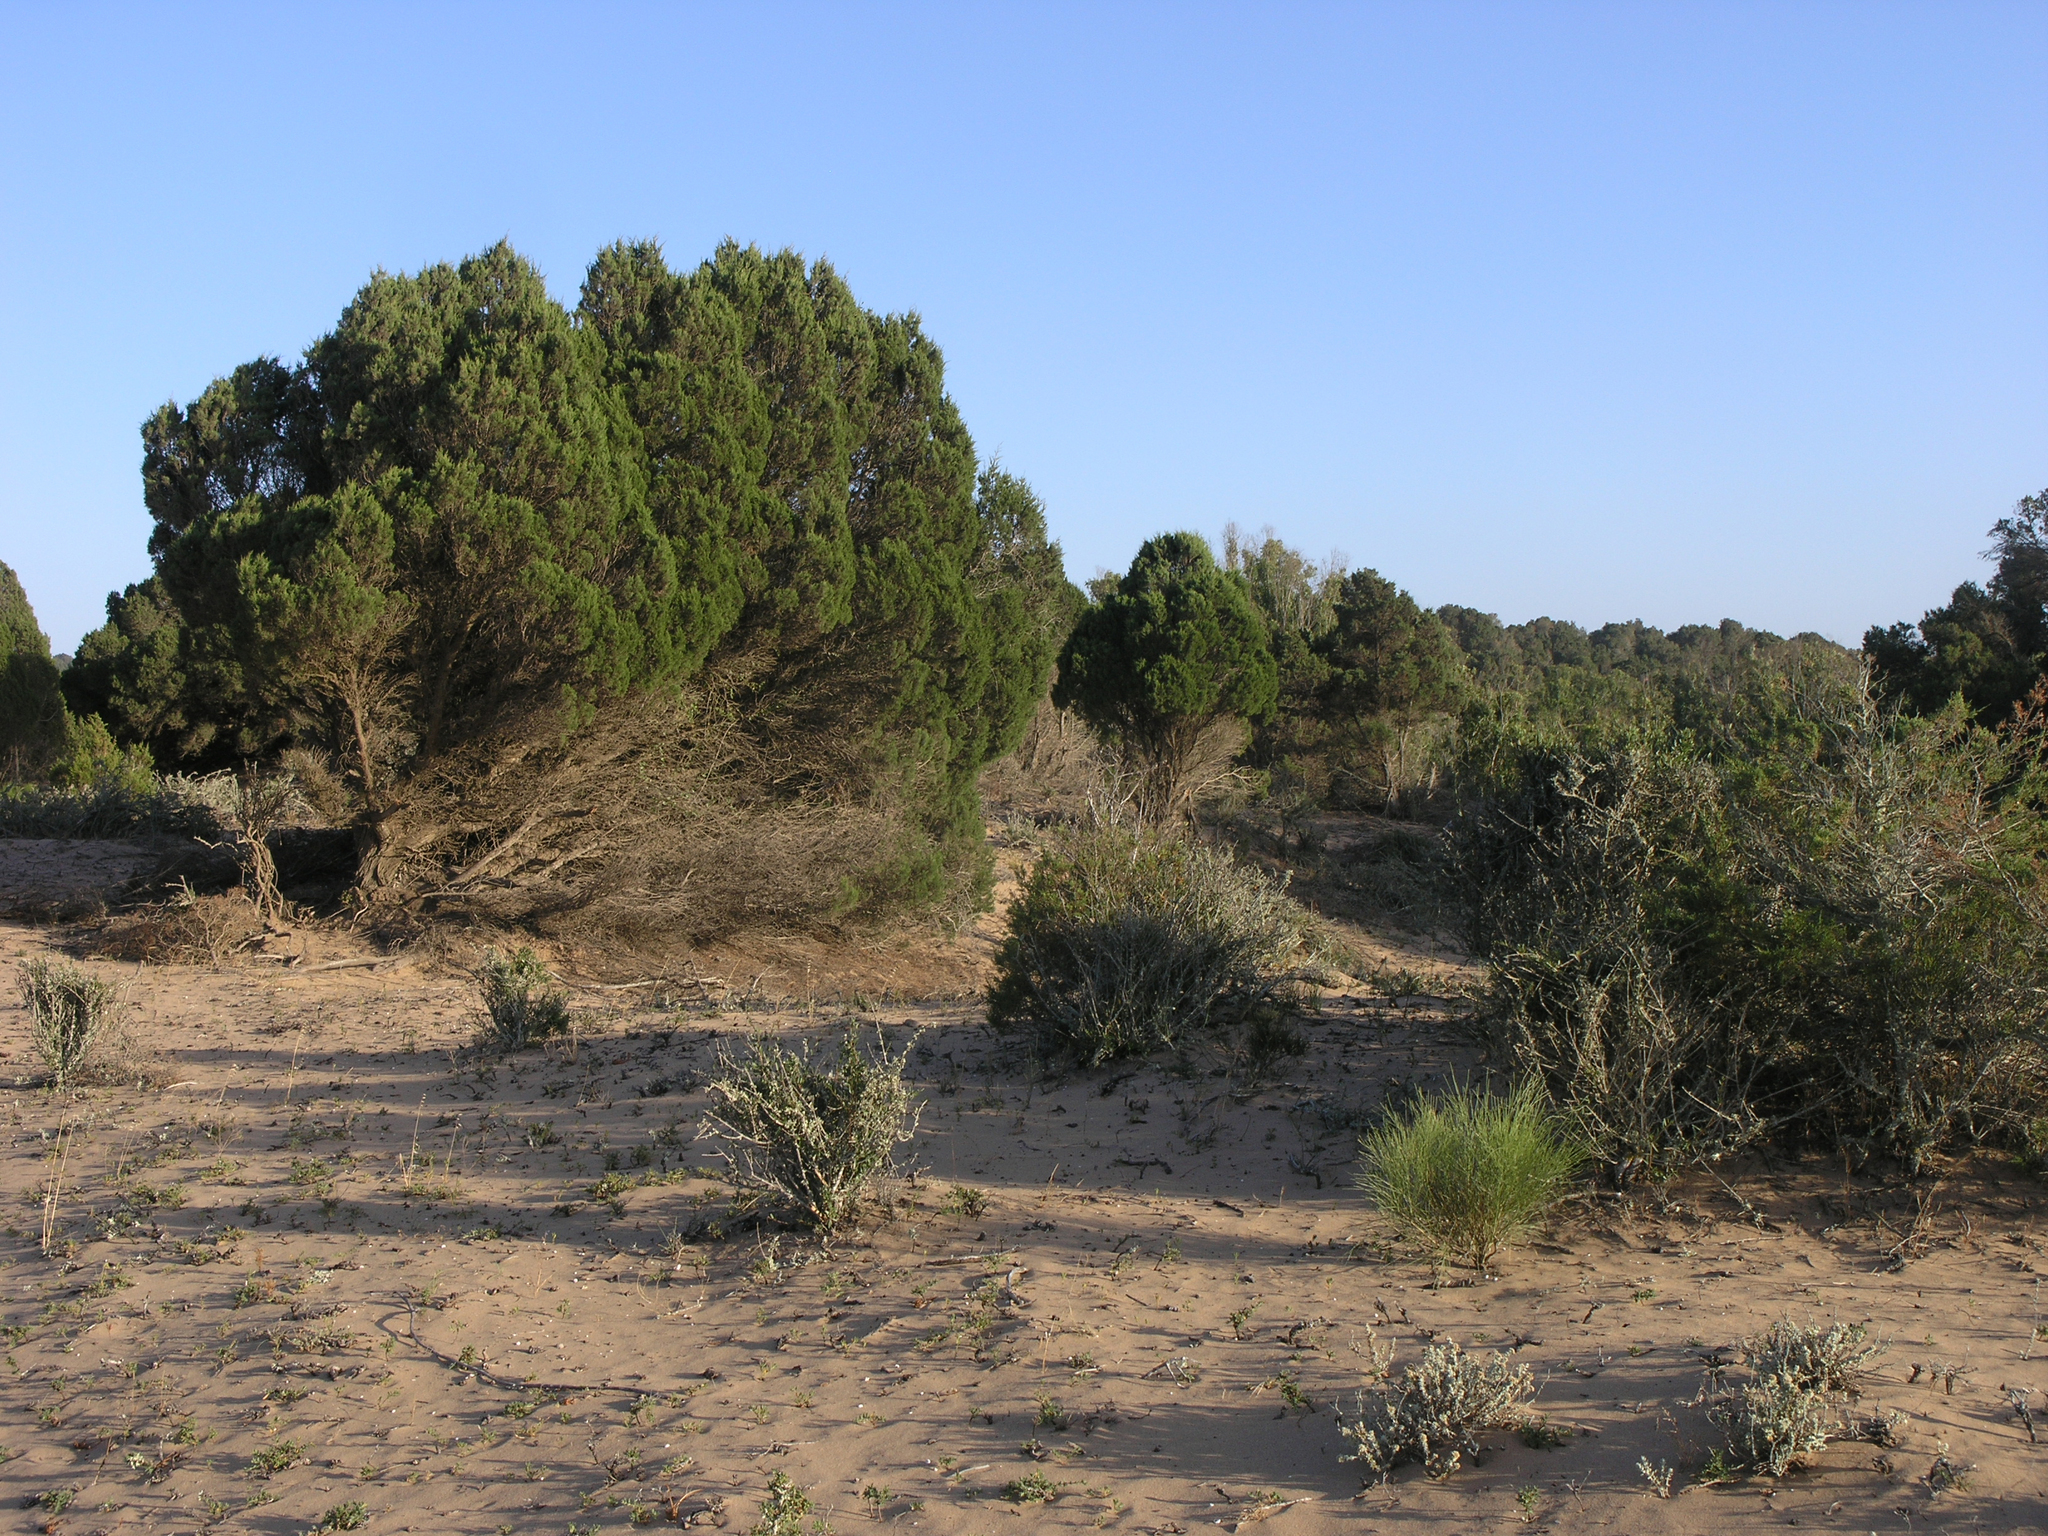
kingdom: Plantae
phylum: Tracheophyta
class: Pinopsida
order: Pinales
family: Cupressaceae
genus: Juniperus
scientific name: Juniperus phoenicea
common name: Phoenician juniper
